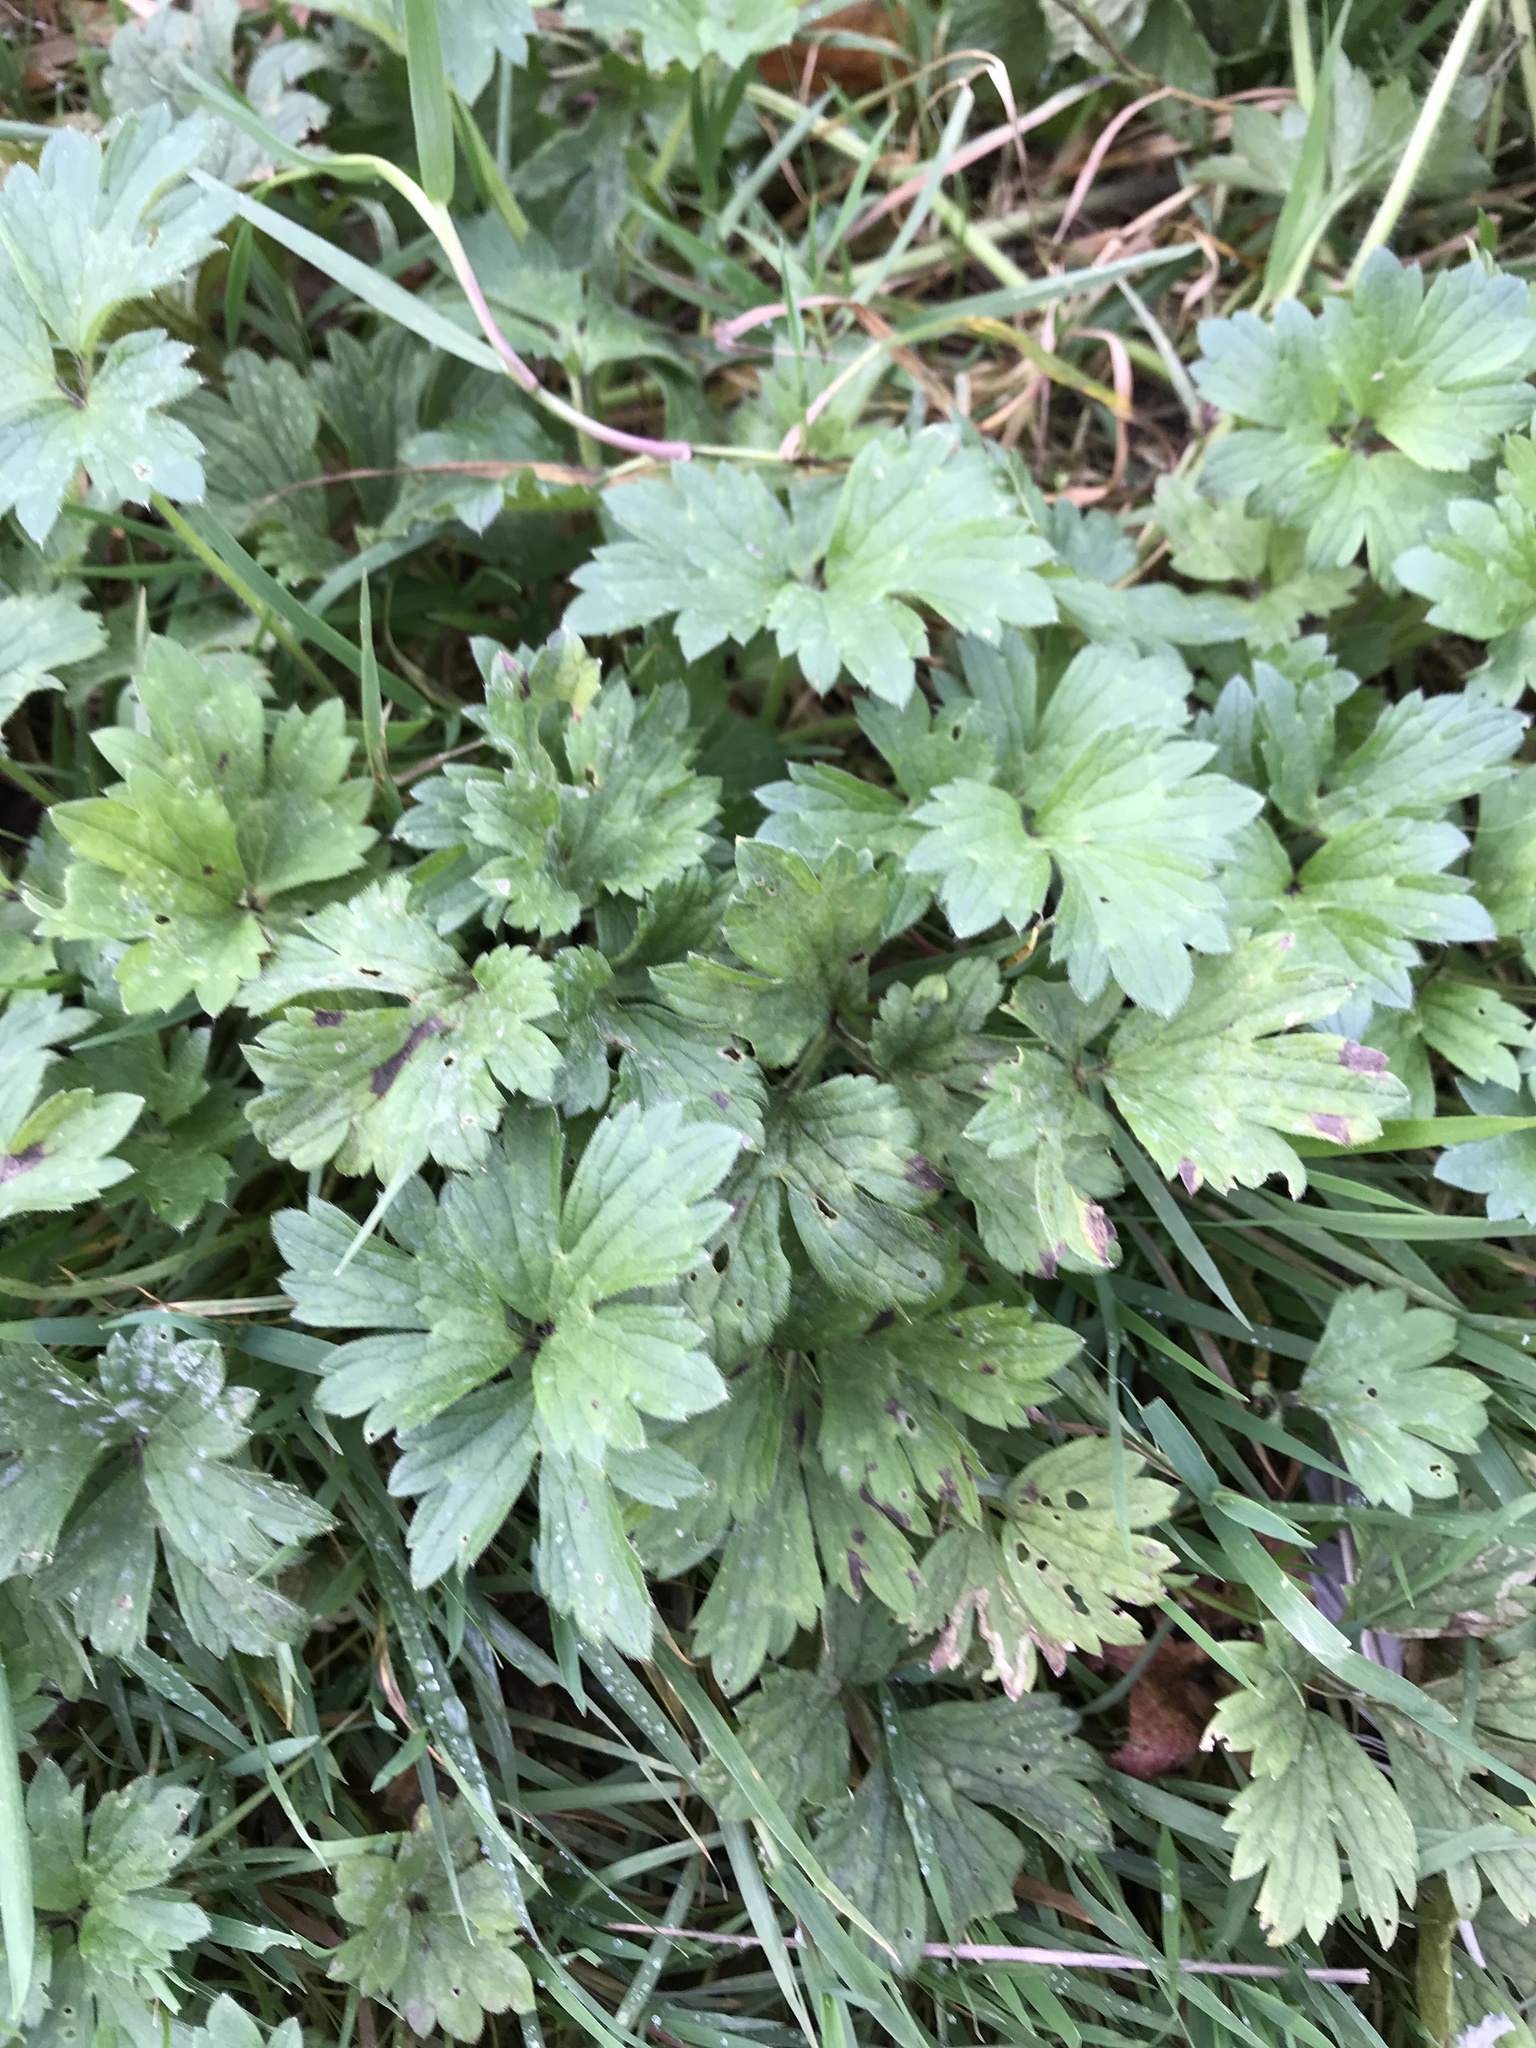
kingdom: Plantae
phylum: Tracheophyta
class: Magnoliopsida
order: Ranunculales
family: Ranunculaceae
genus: Ranunculus
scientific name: Ranunculus repens
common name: Creeping buttercup
